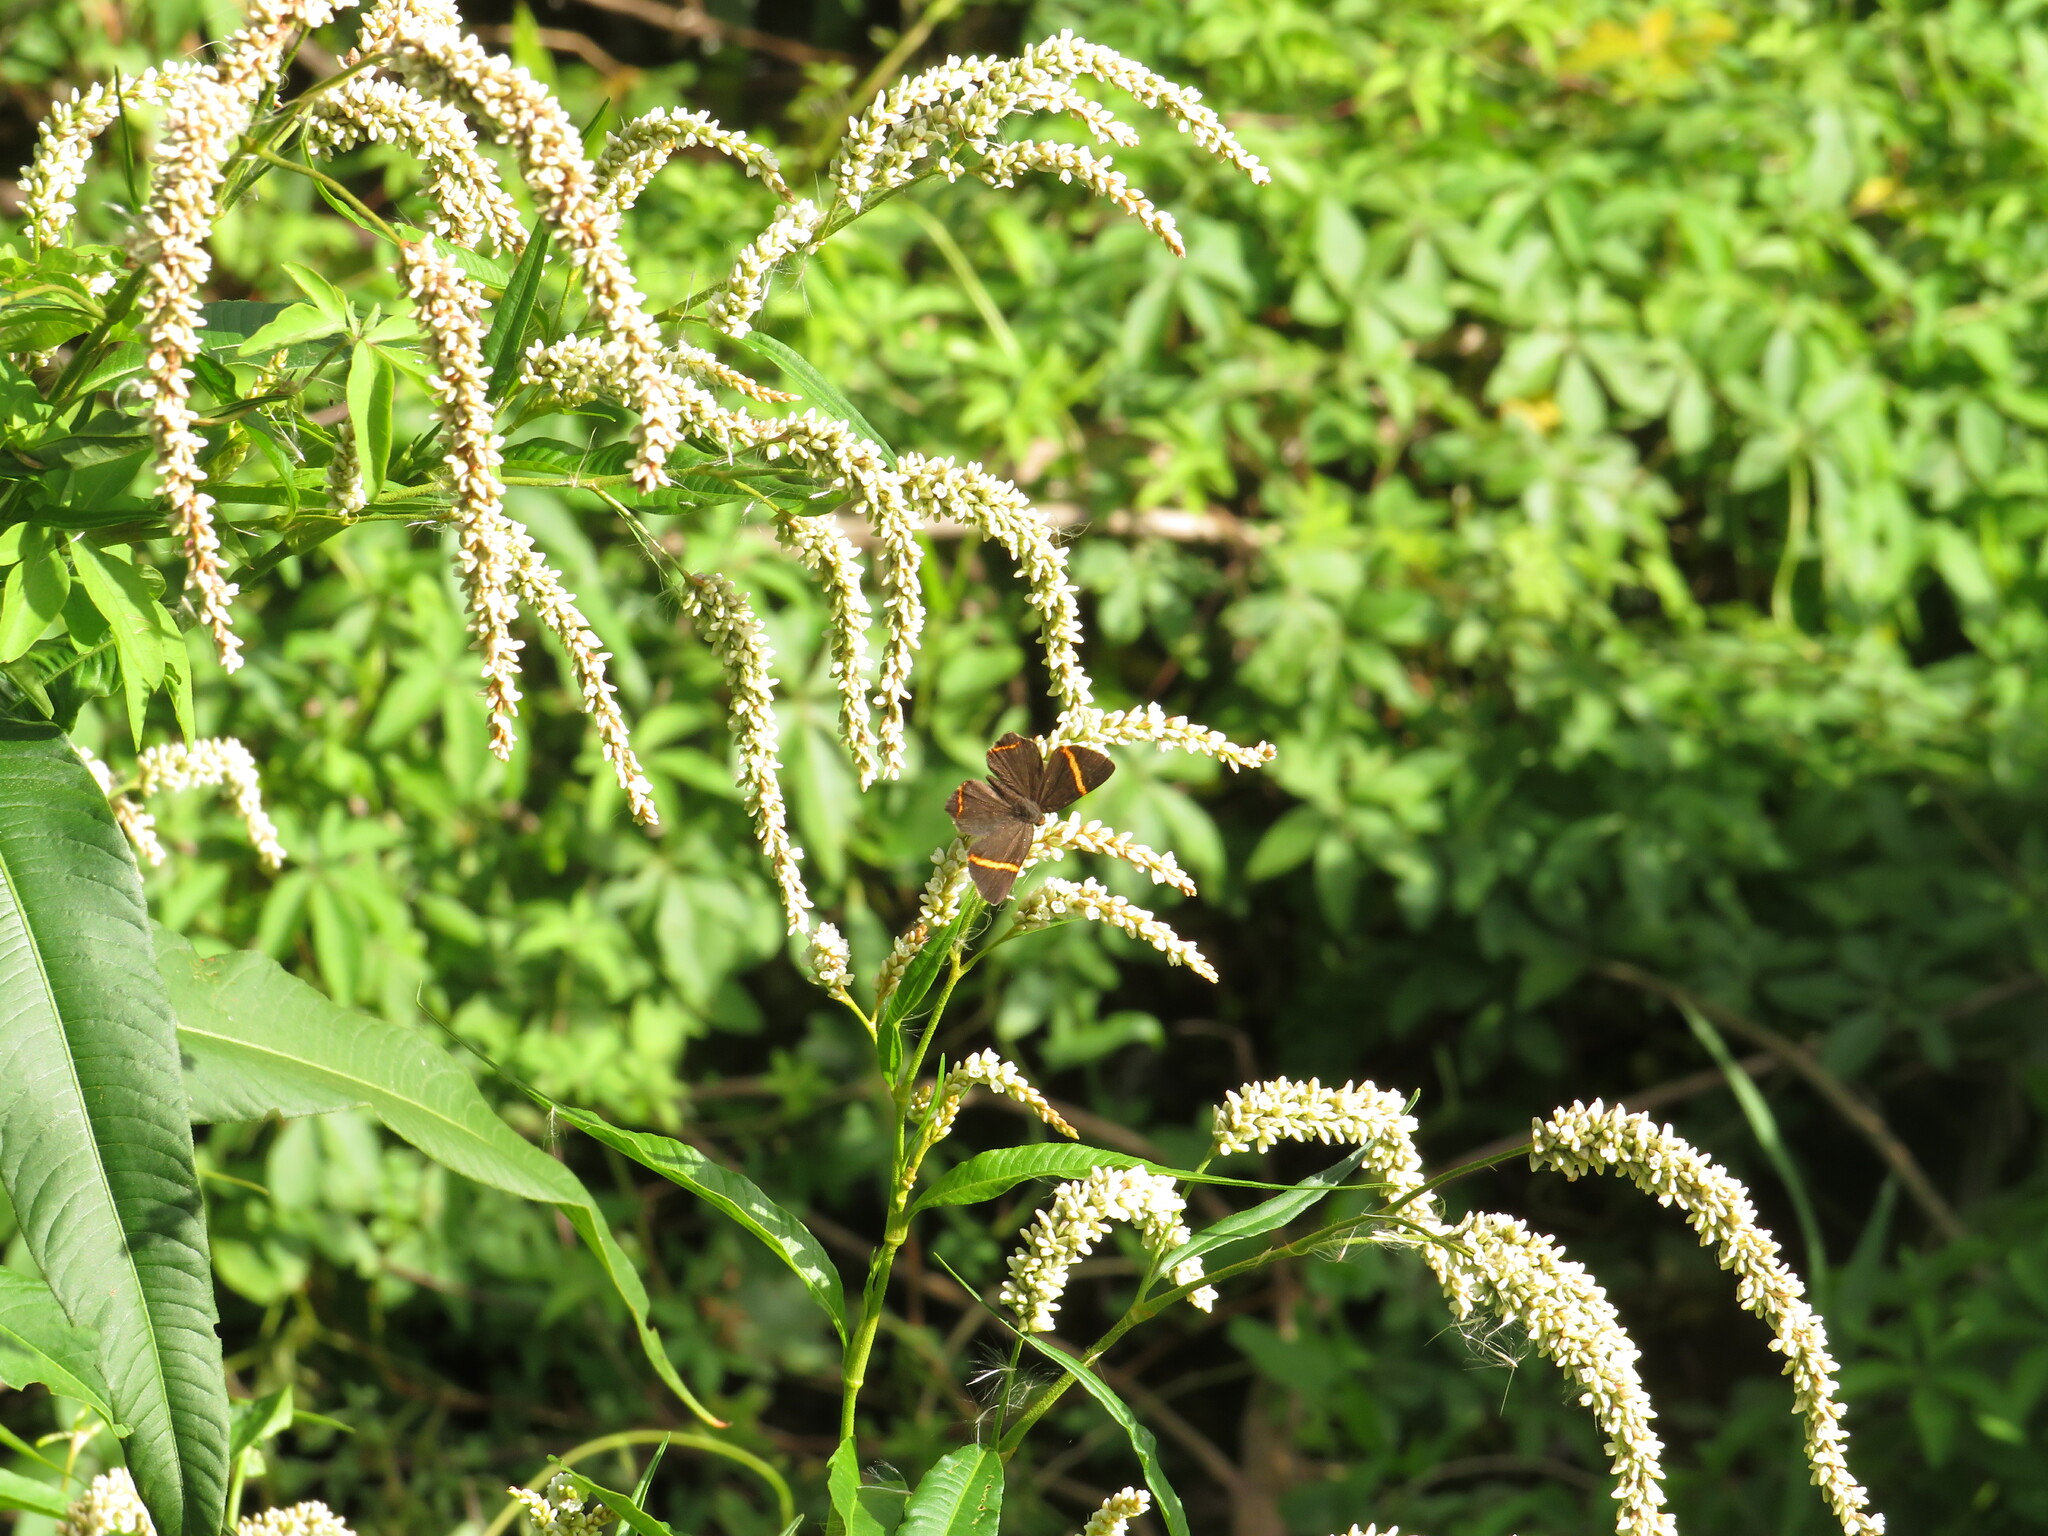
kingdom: Animalia
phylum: Arthropoda
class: Insecta
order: Lepidoptera
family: Riodinidae
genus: Riodina
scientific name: Riodina lysippoides
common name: Little dancer metalmark
